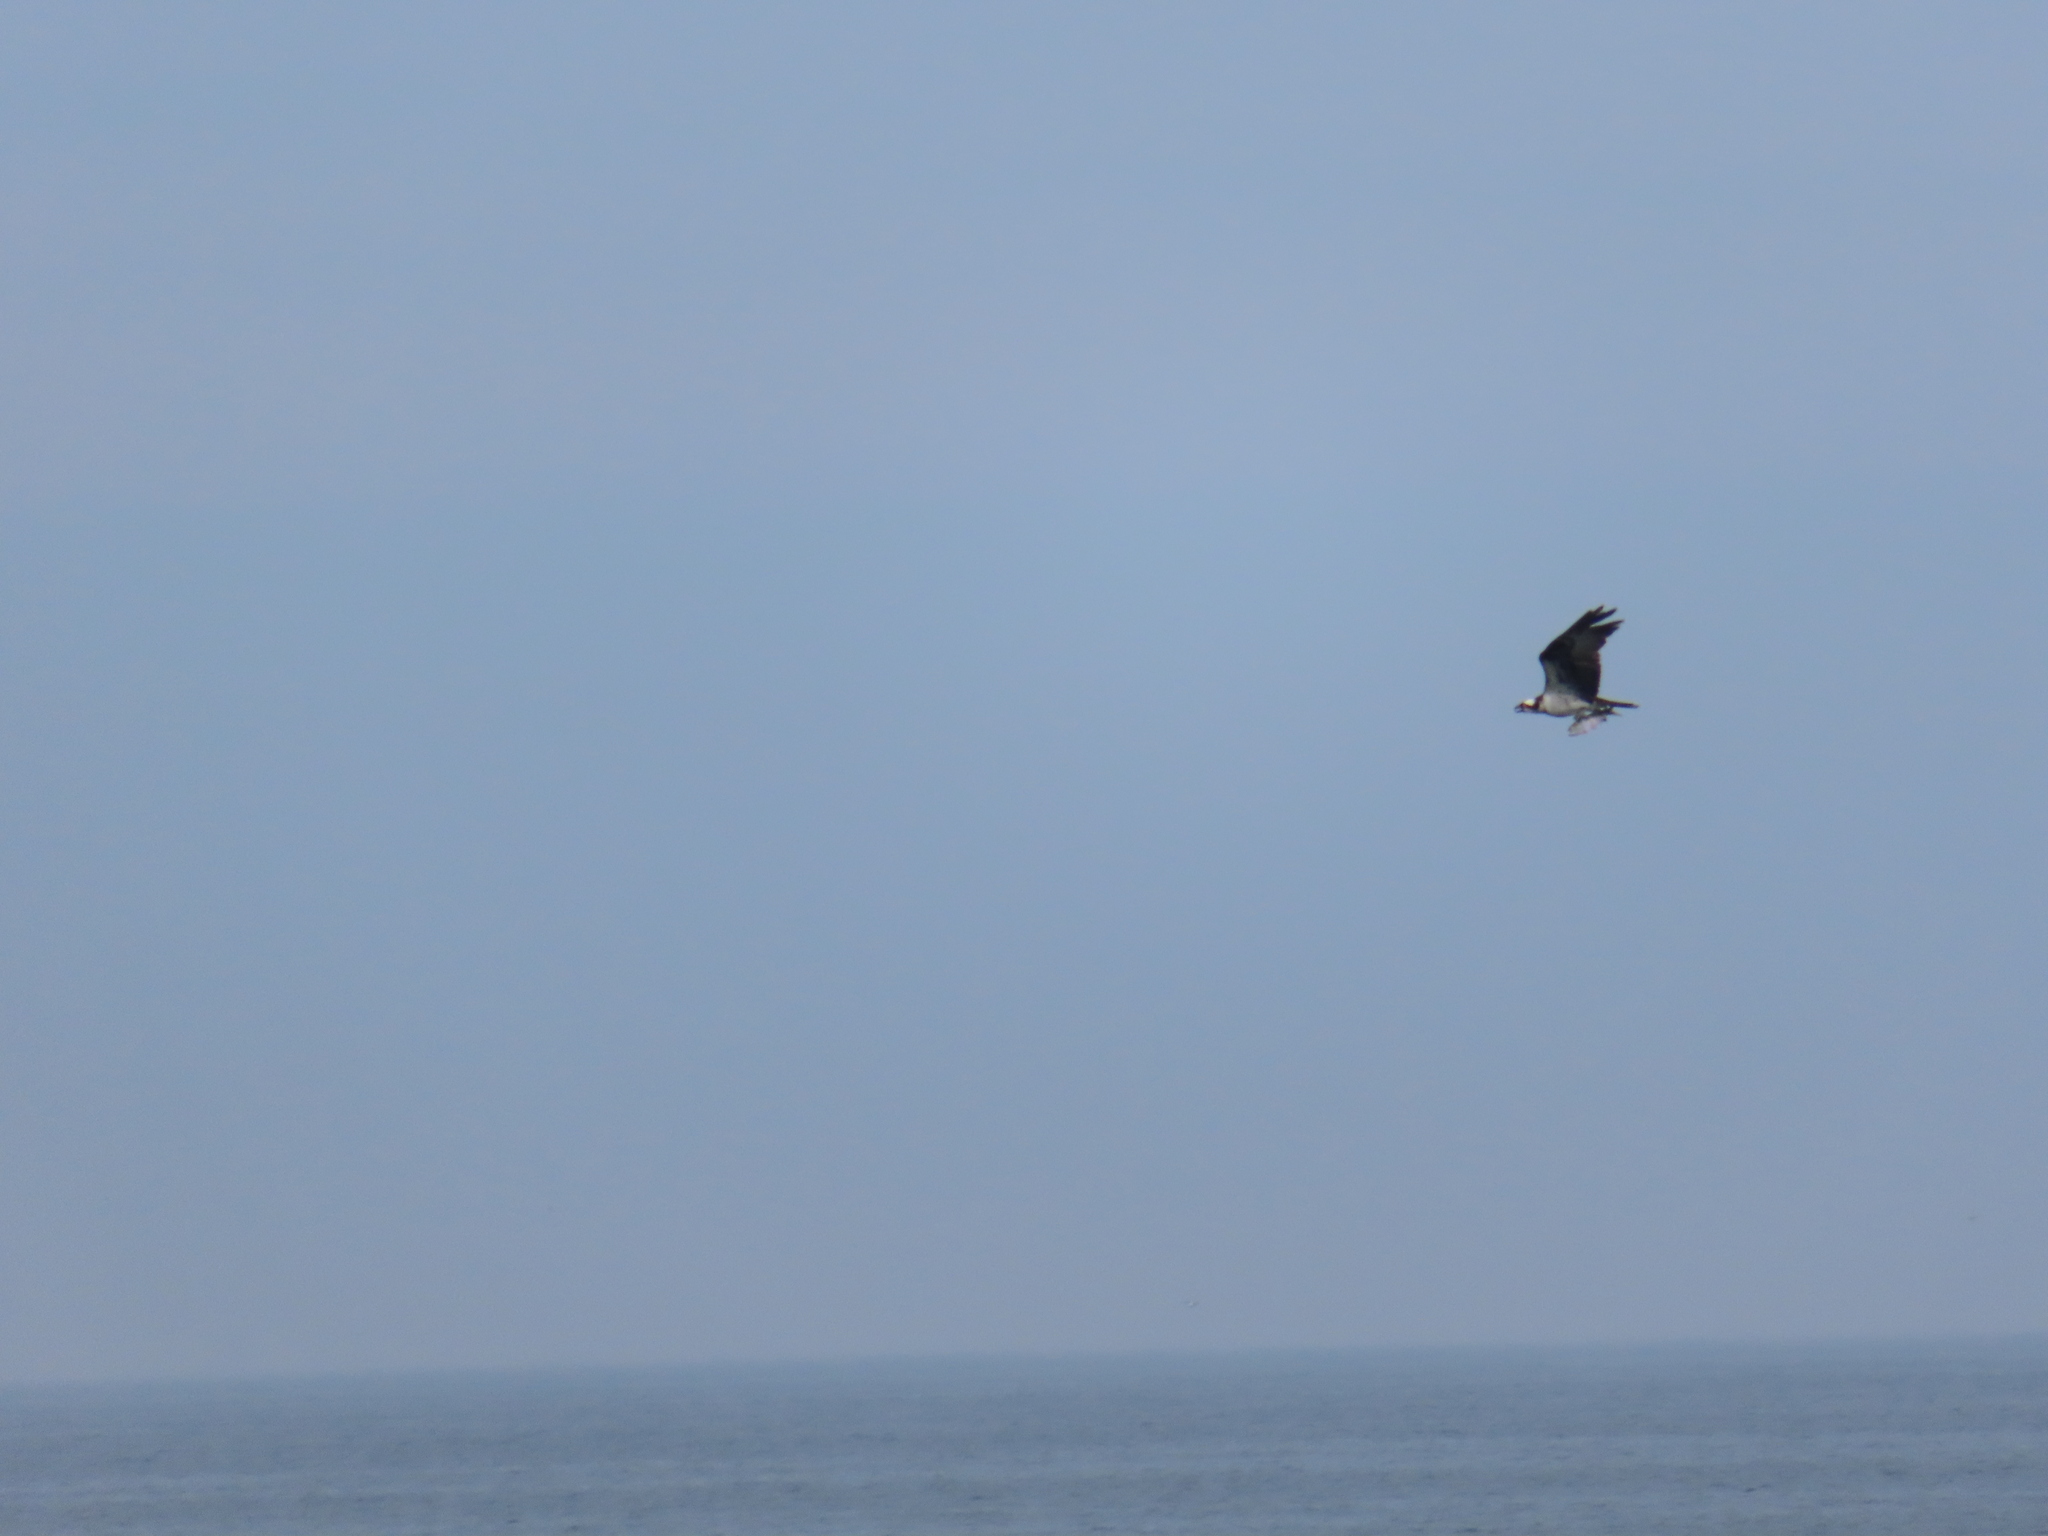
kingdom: Animalia
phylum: Chordata
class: Aves
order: Accipitriformes
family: Pandionidae
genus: Pandion
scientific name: Pandion haliaetus
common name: Osprey
